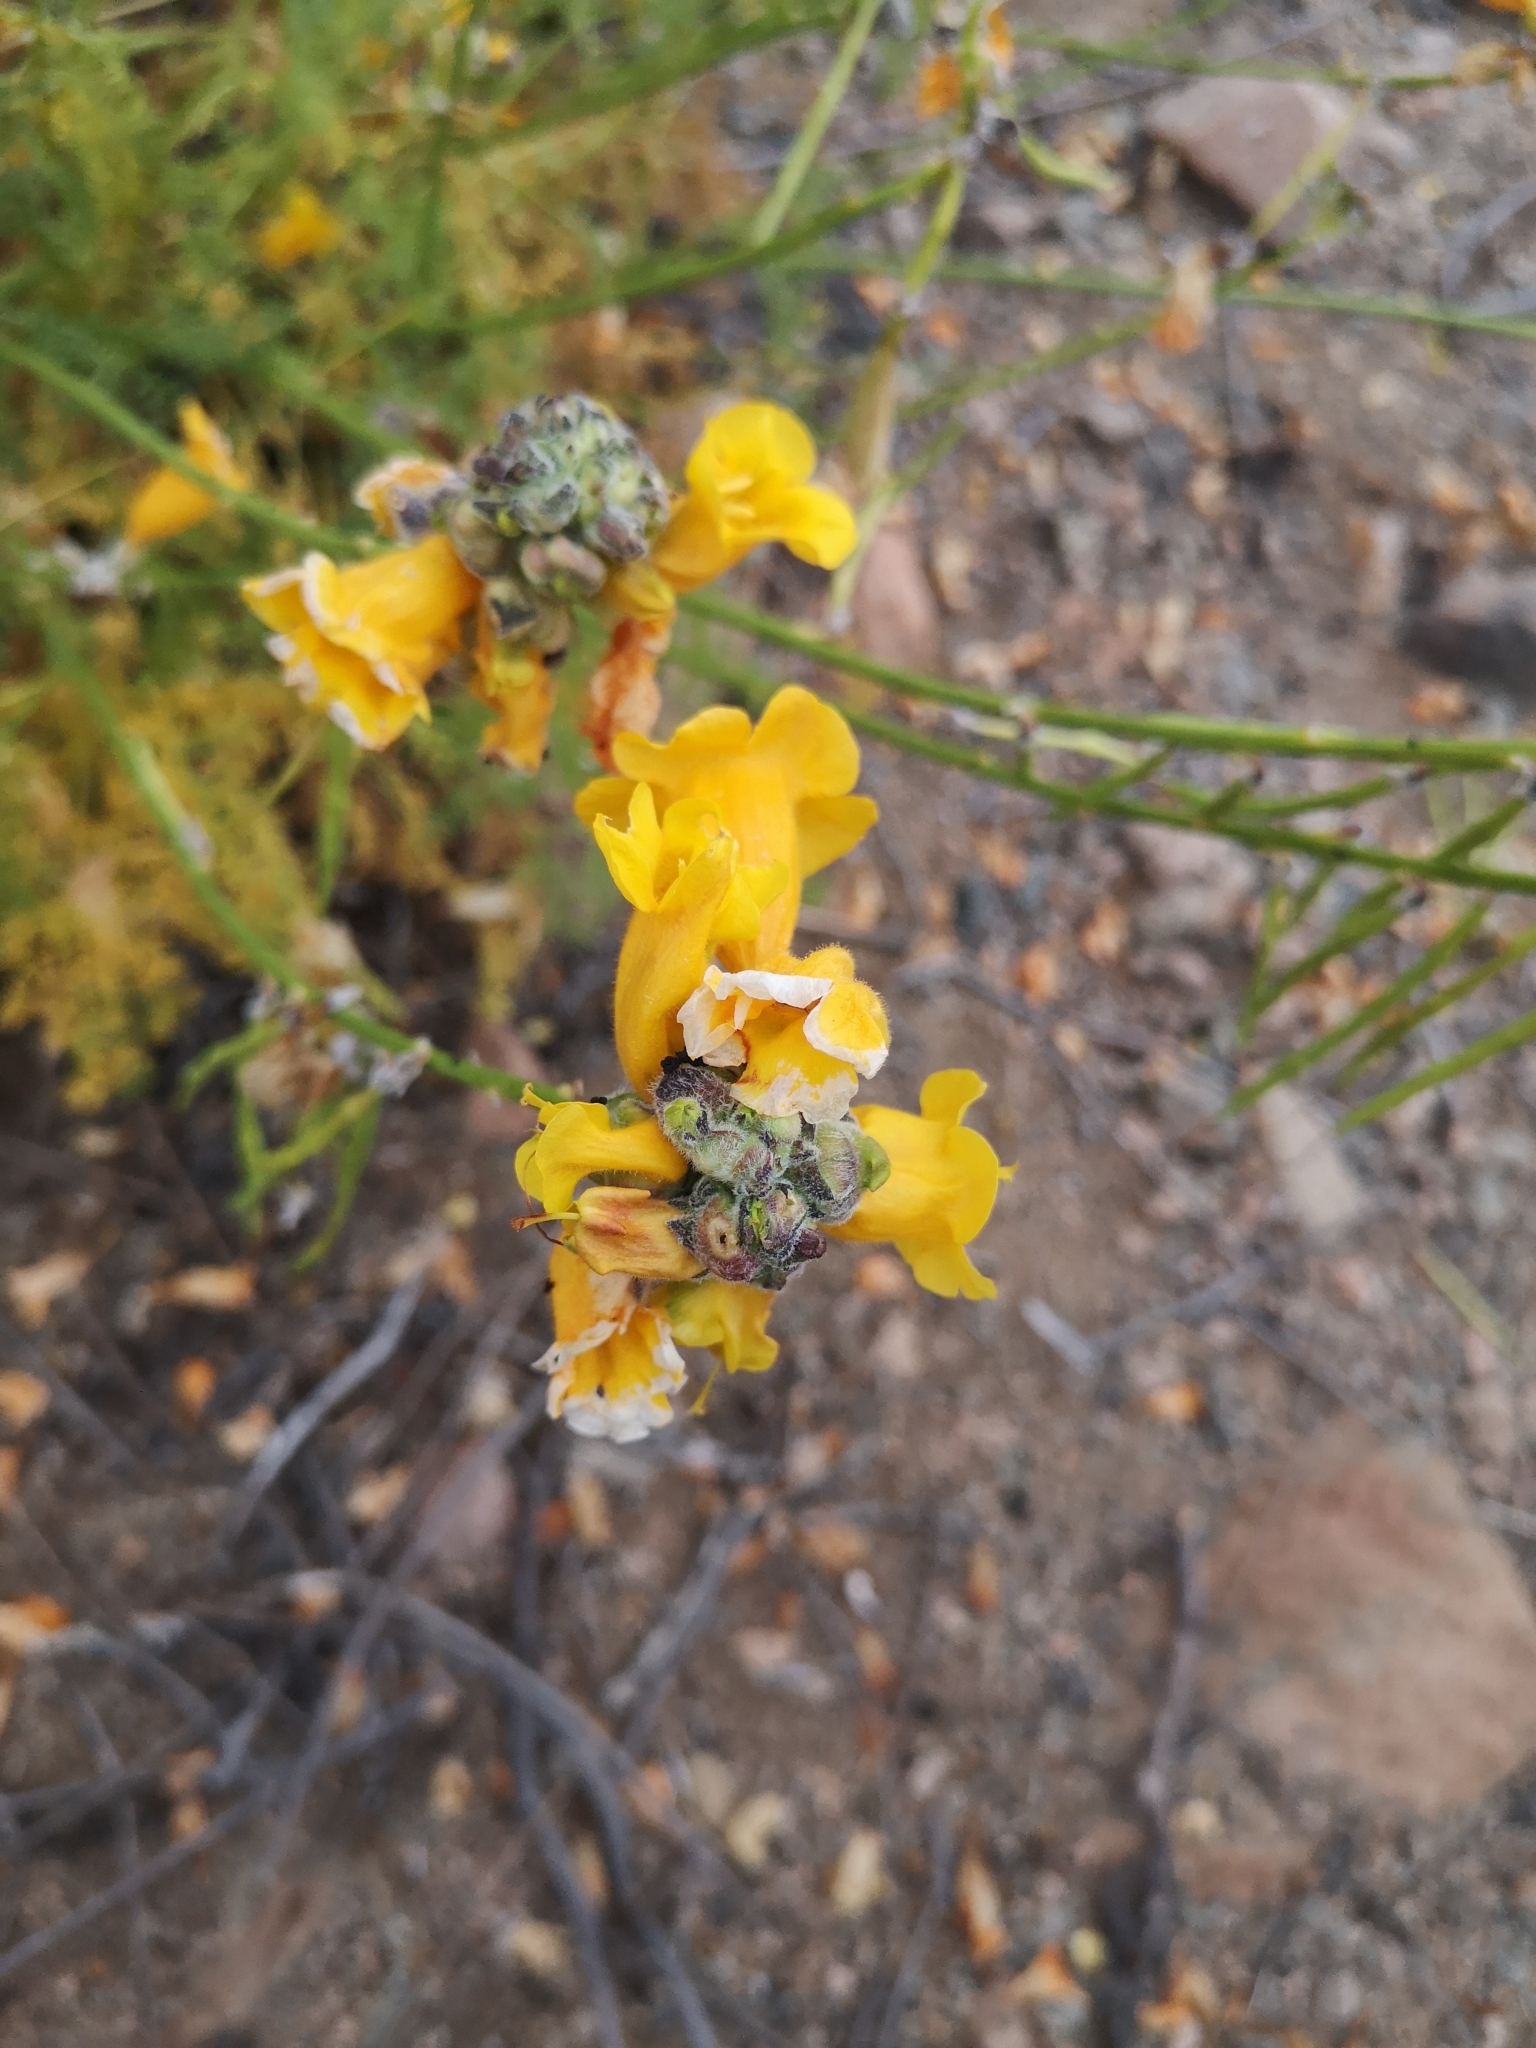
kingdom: Plantae
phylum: Tracheophyta
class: Magnoliopsida
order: Lamiales
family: Bignoniaceae
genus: Argylia
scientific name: Argylia radiata
